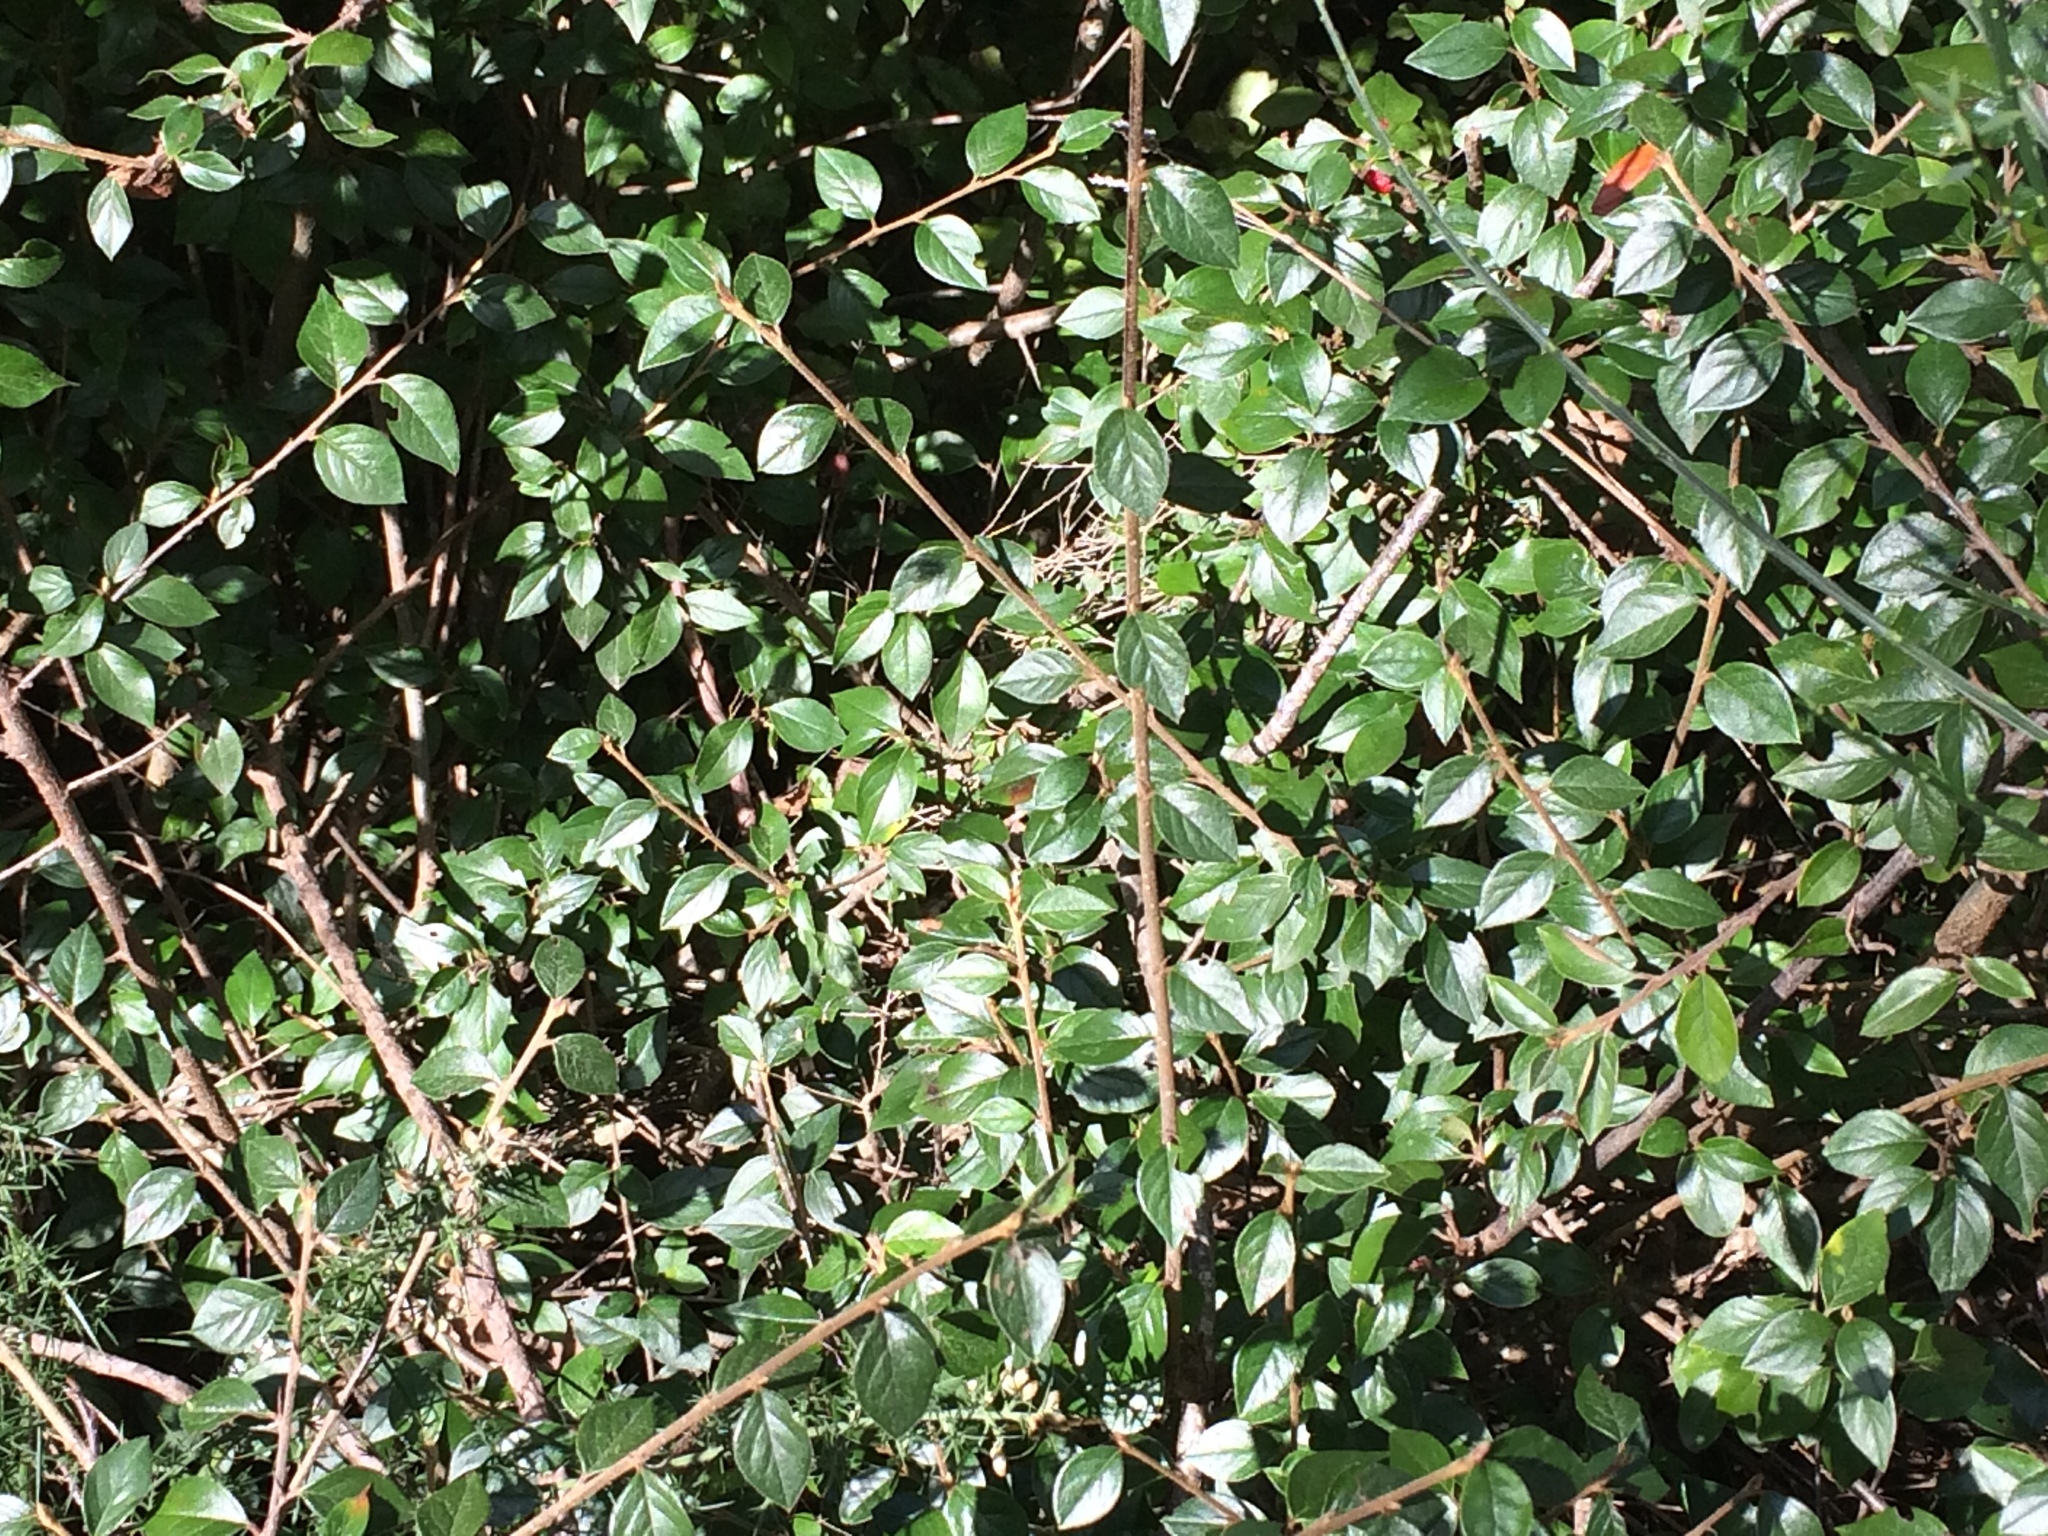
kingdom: Plantae
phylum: Tracheophyta
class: Magnoliopsida
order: Rosales
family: Rosaceae
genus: Cotoneaster
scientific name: Cotoneaster simonsii
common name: Himalayan cotoneaster
